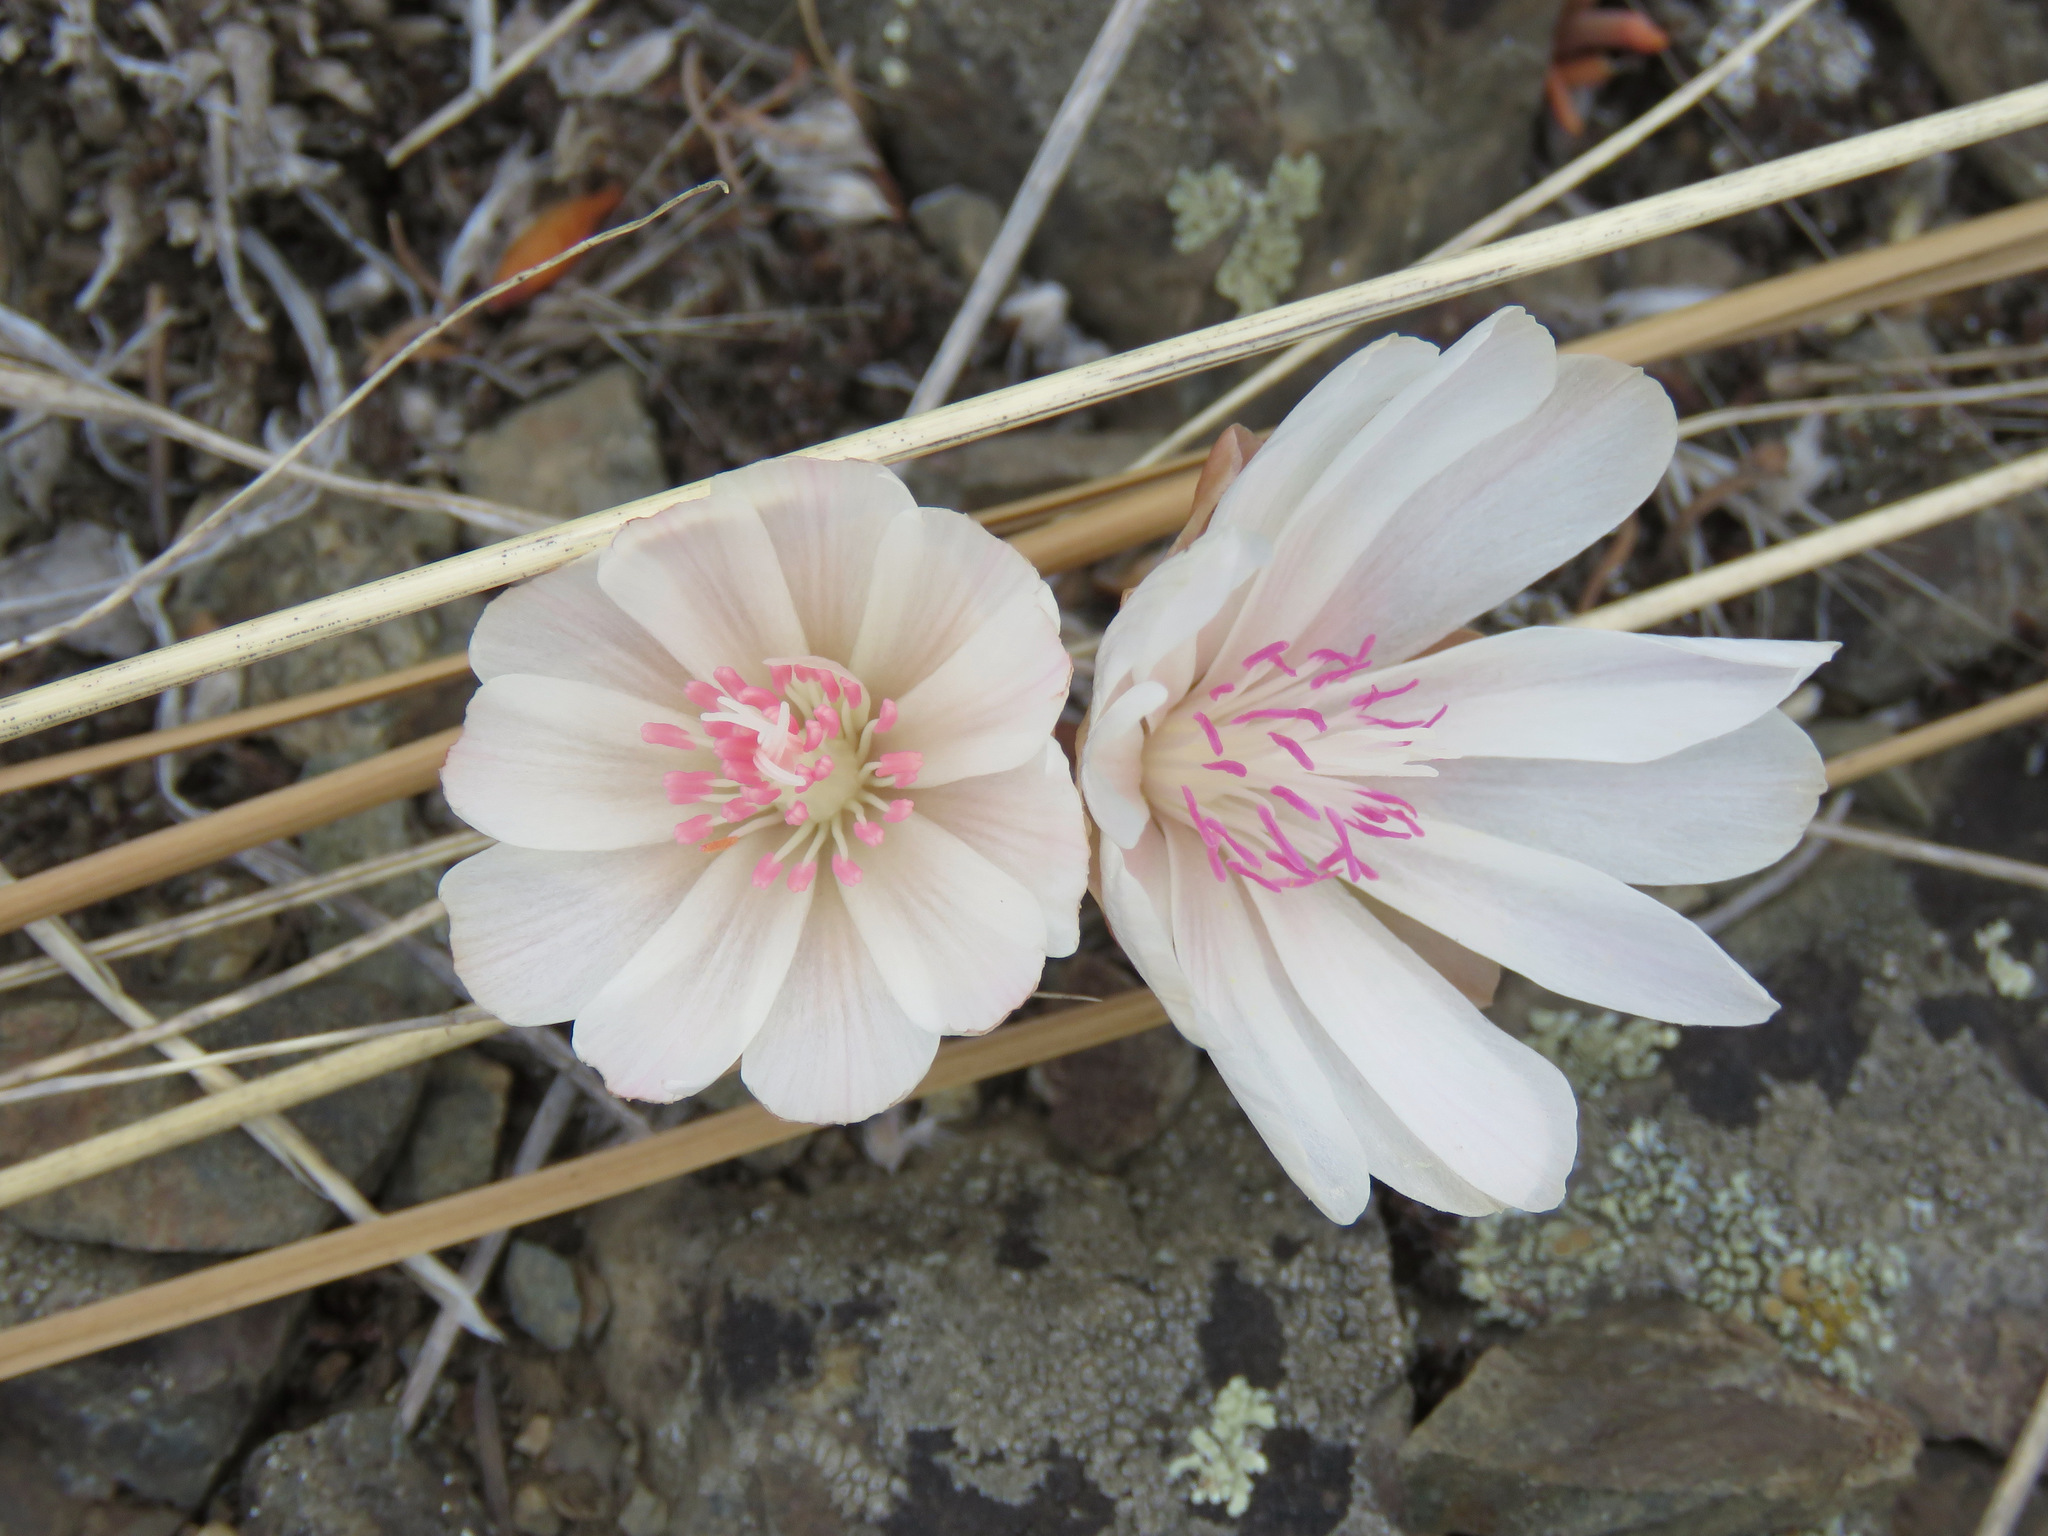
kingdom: Plantae
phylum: Tracheophyta
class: Magnoliopsida
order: Caryophyllales
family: Montiaceae
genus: Lewisia
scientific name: Lewisia rediviva
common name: Bitter-root
